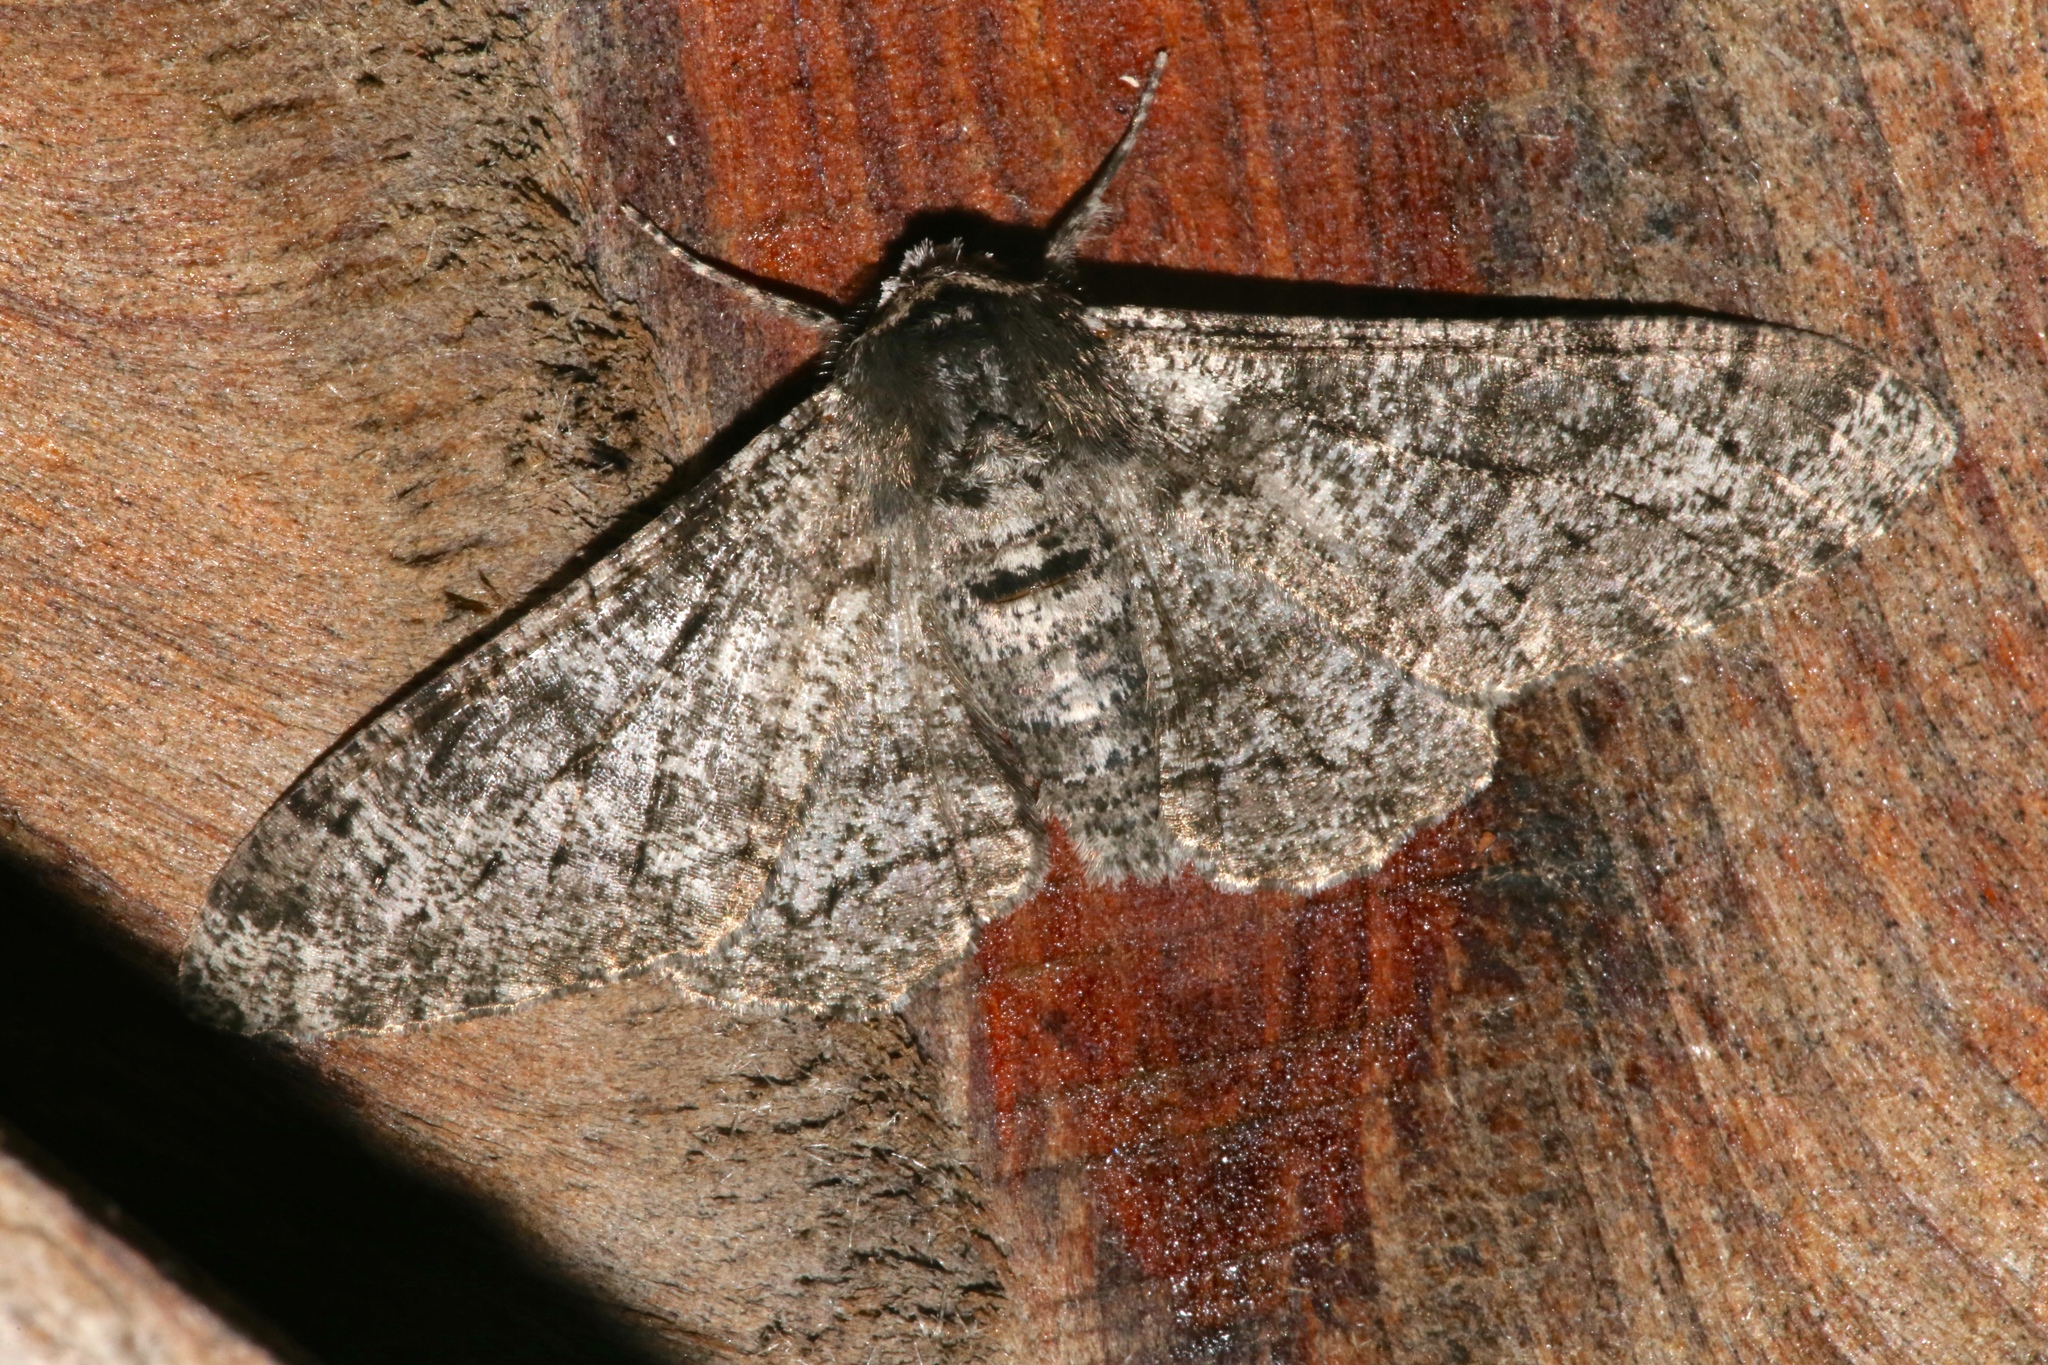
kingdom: Animalia
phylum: Arthropoda
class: Insecta
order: Lepidoptera
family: Geometridae
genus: Biston
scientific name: Biston betularia
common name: Peppered moth
